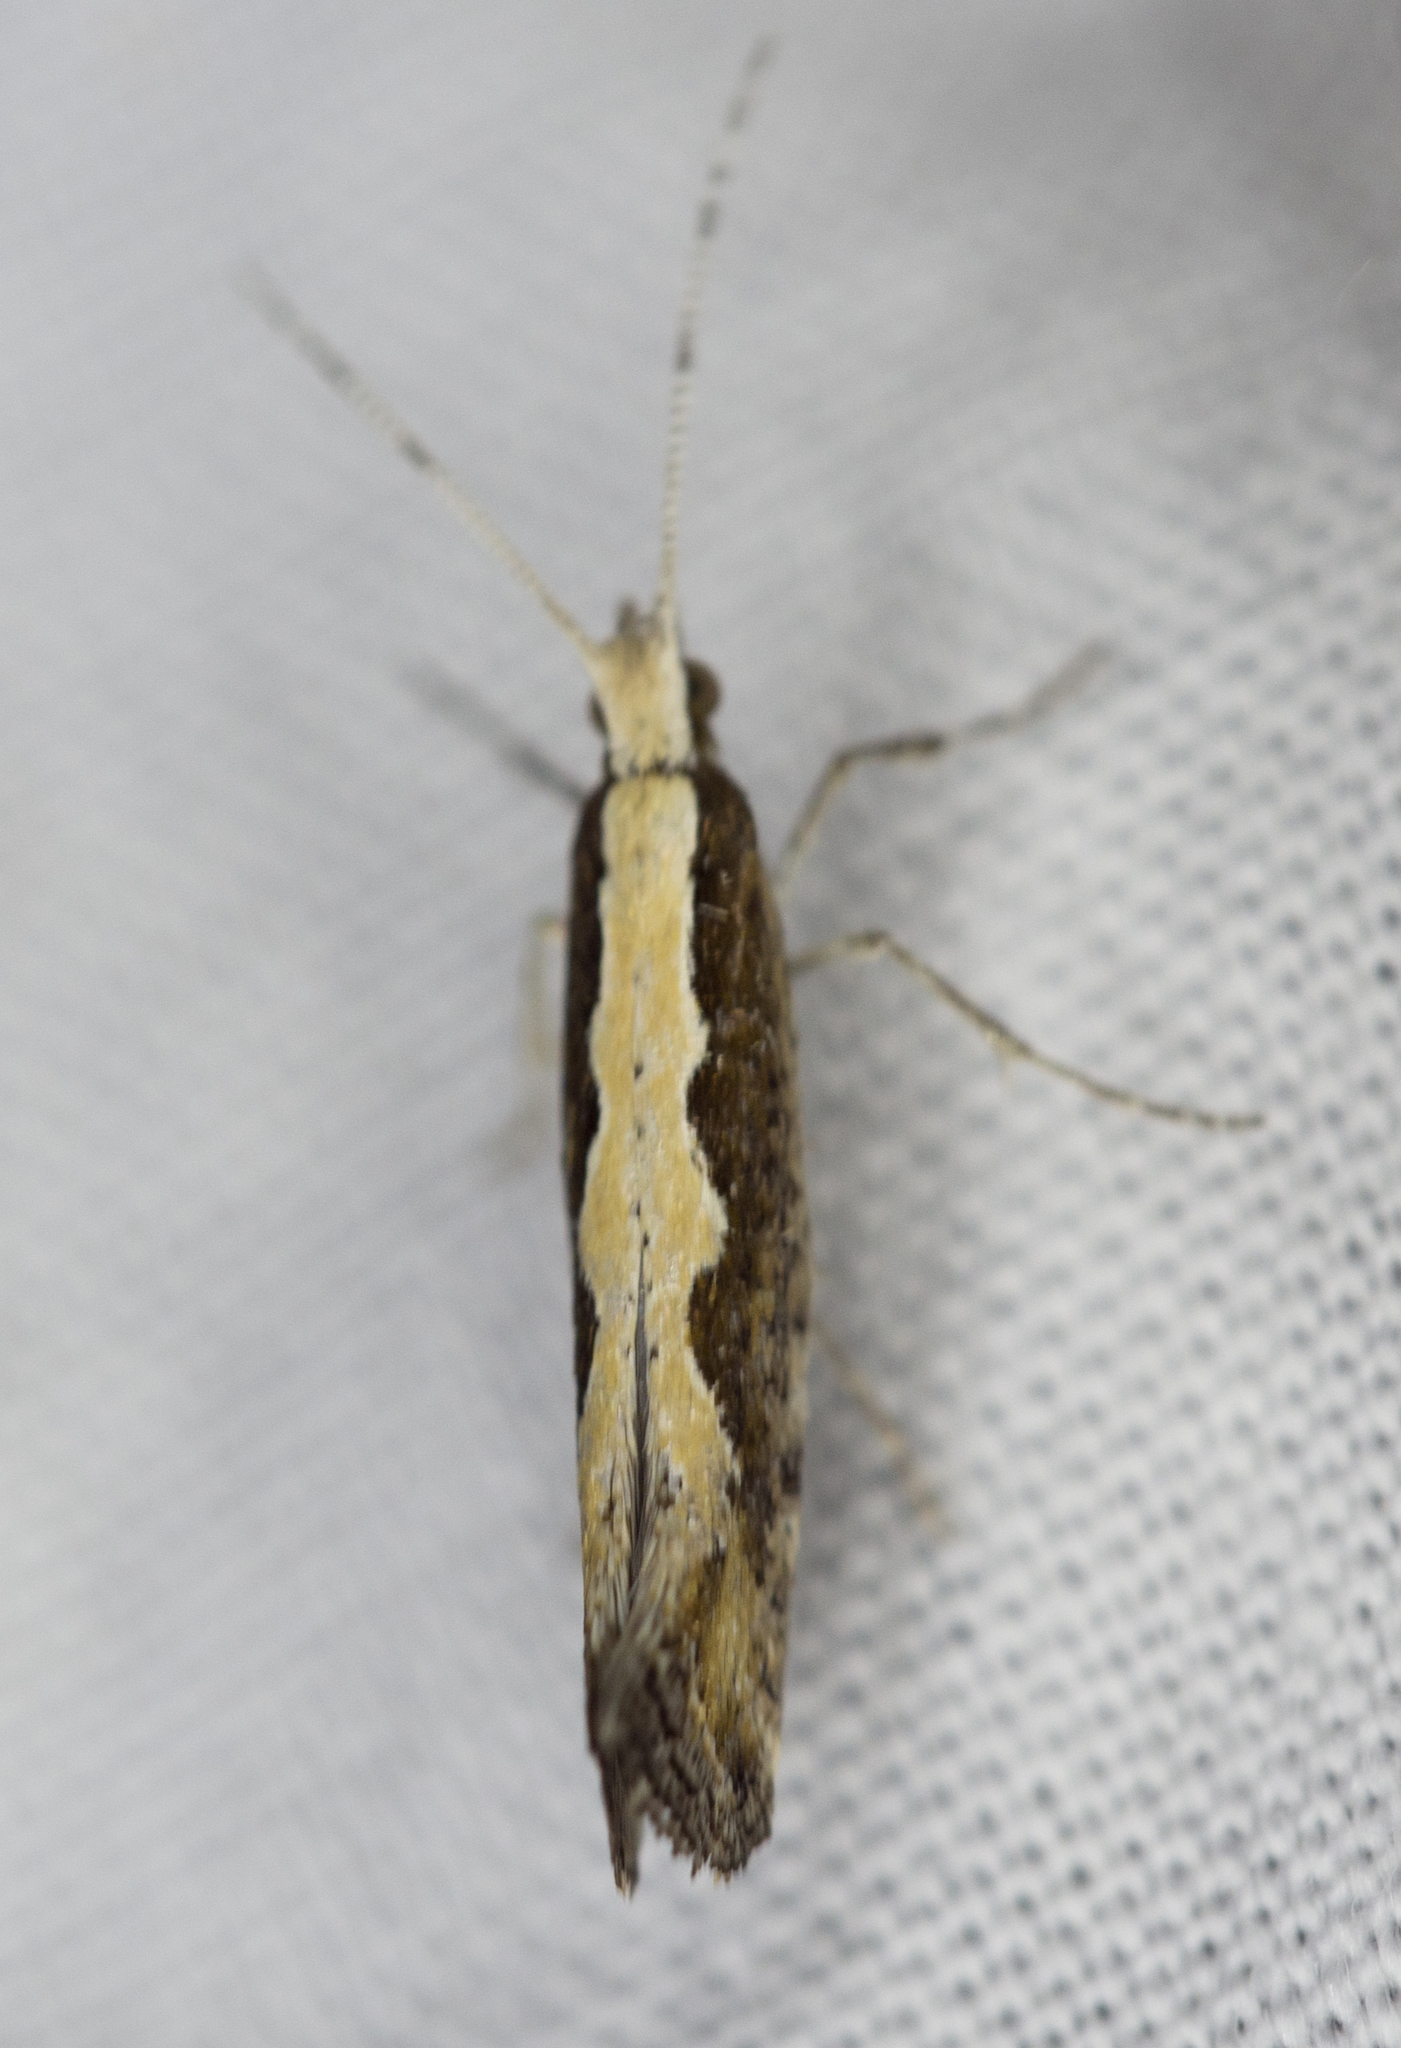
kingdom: Animalia
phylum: Arthropoda
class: Insecta
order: Lepidoptera
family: Plutellidae
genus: Plutella
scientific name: Plutella xylostella
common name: Diamond-back moth
